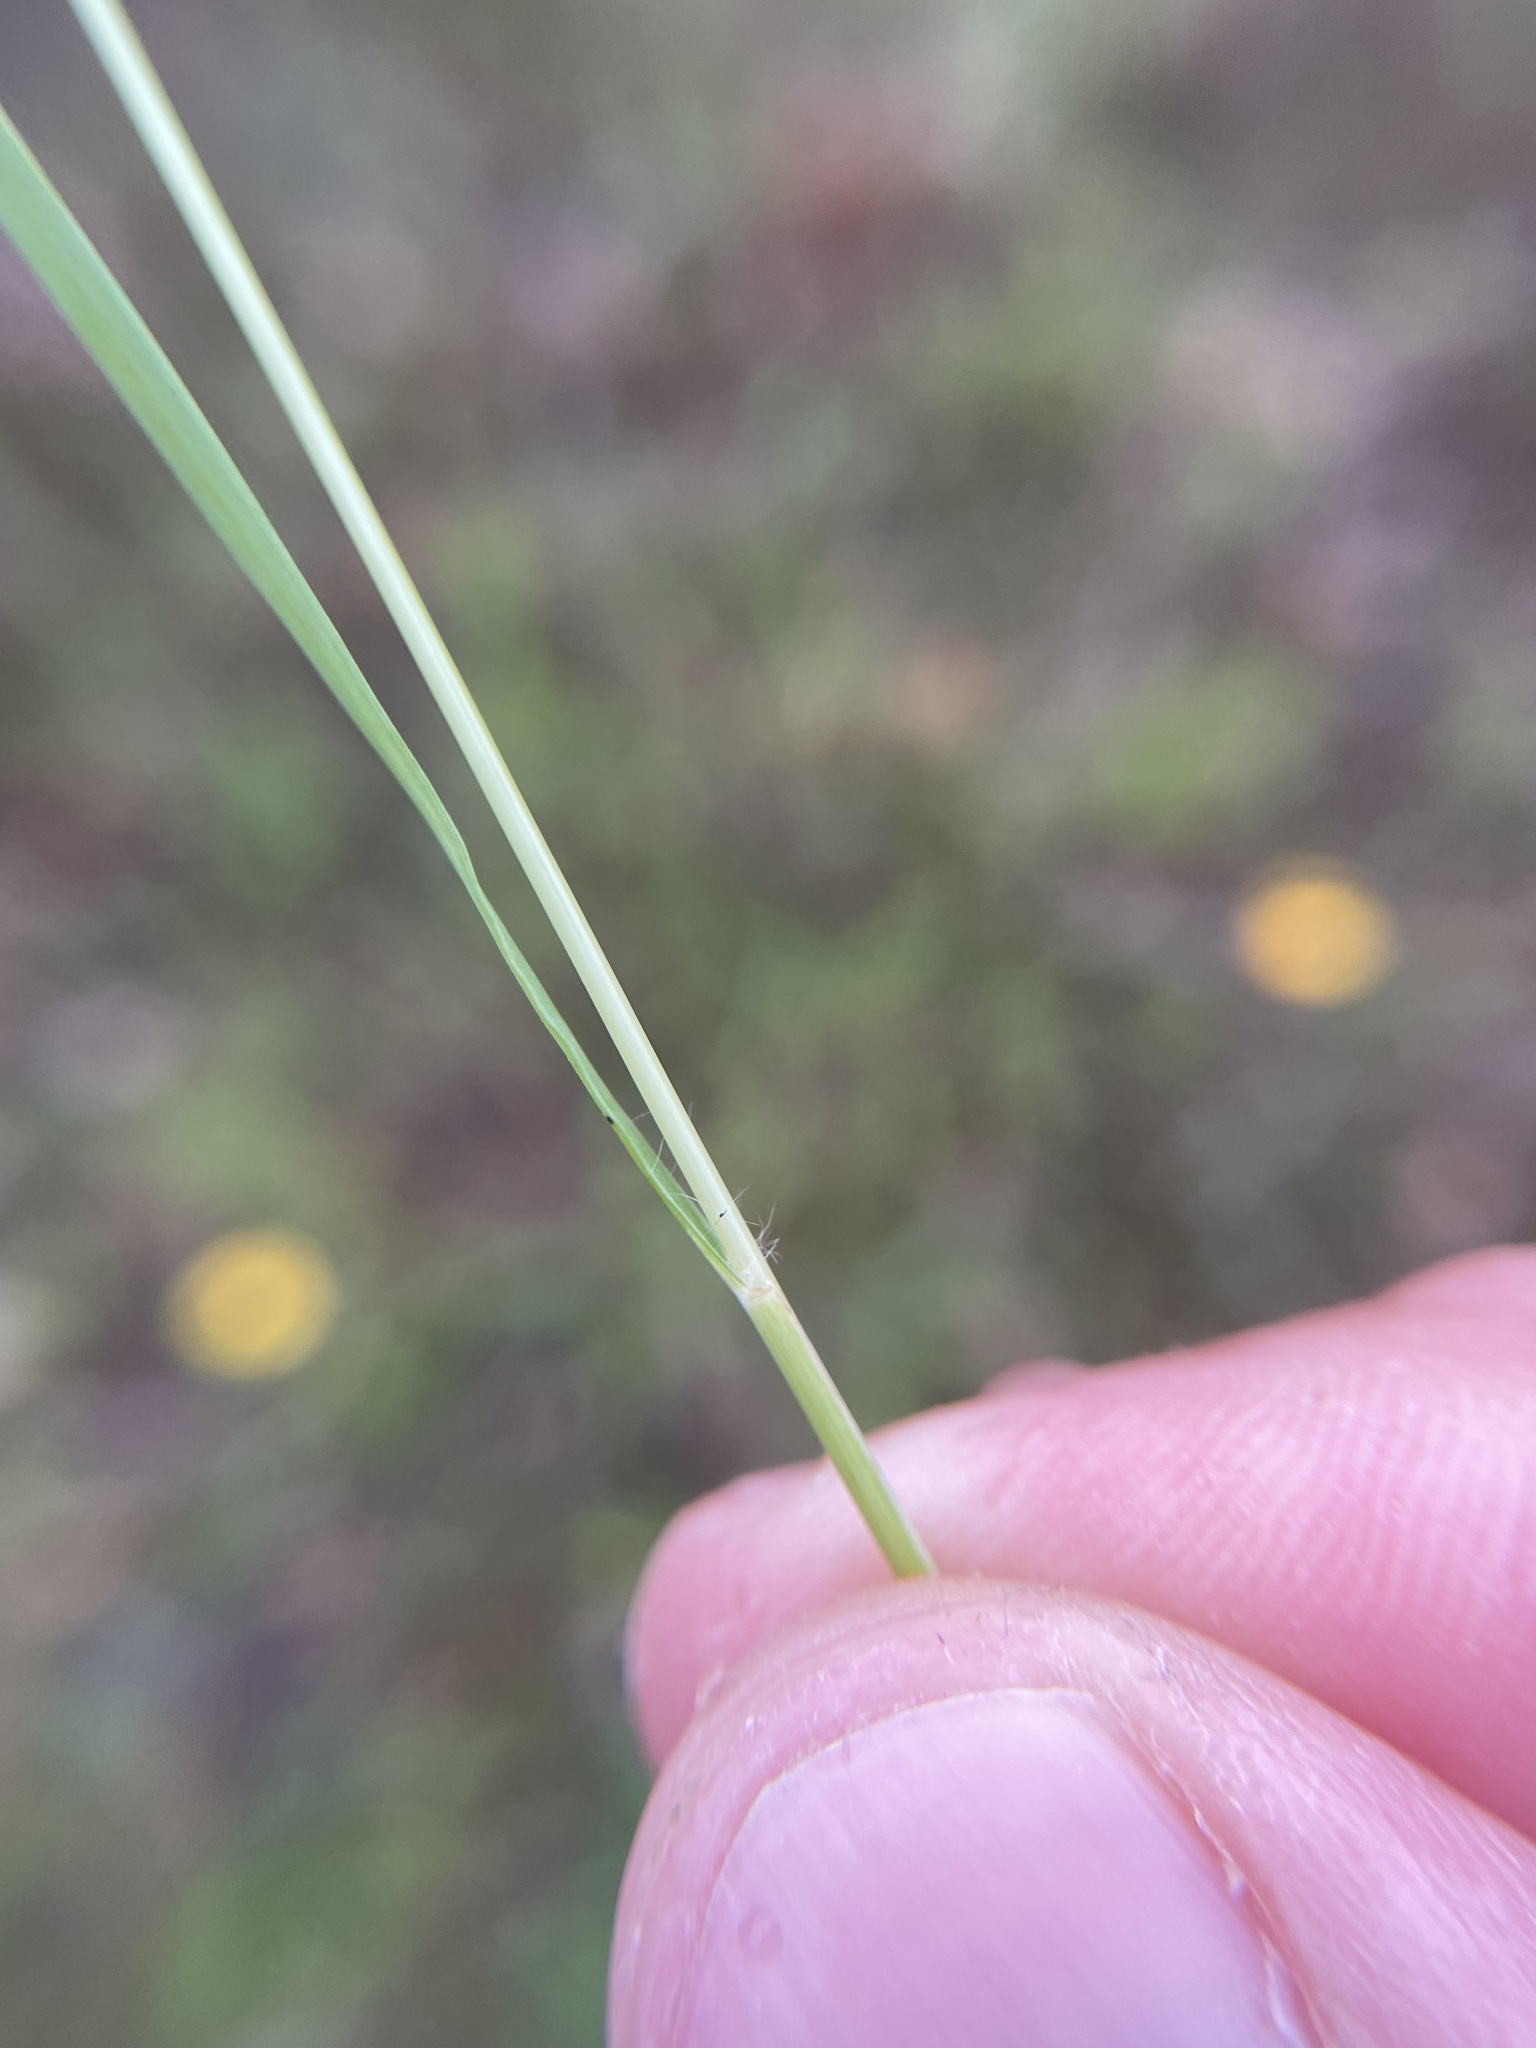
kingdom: Plantae
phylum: Tracheophyta
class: Liliopsida
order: Poales
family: Poaceae
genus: Eragrostis
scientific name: Eragrostis secundiflora
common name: Red love grass
